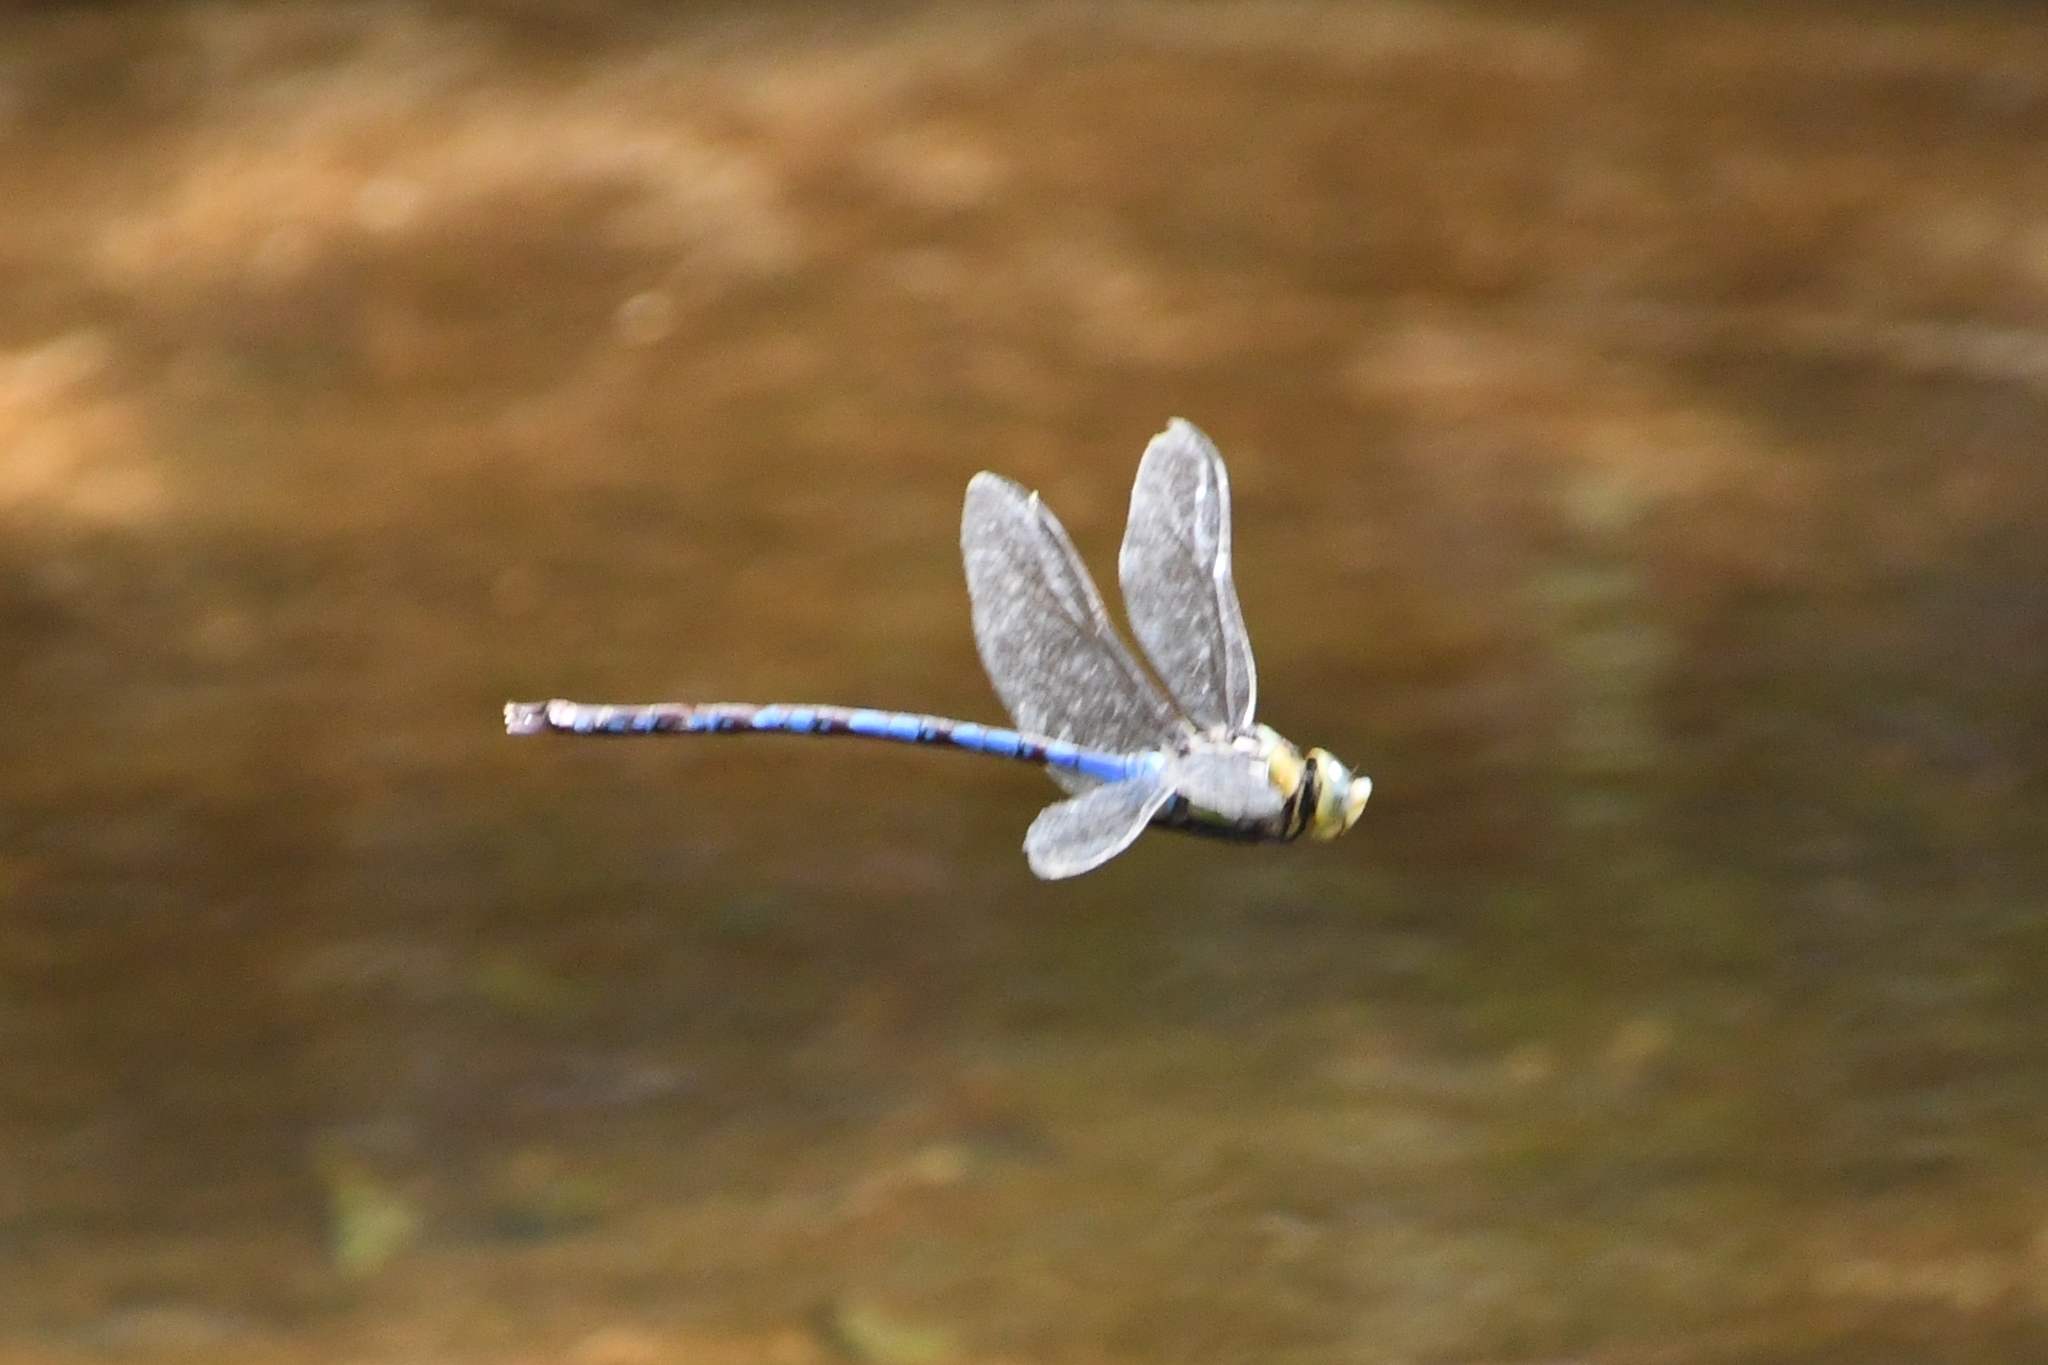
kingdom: Animalia
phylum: Arthropoda
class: Insecta
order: Odonata
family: Aeshnidae
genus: Anax
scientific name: Anax walsinghami
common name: Giant darner
